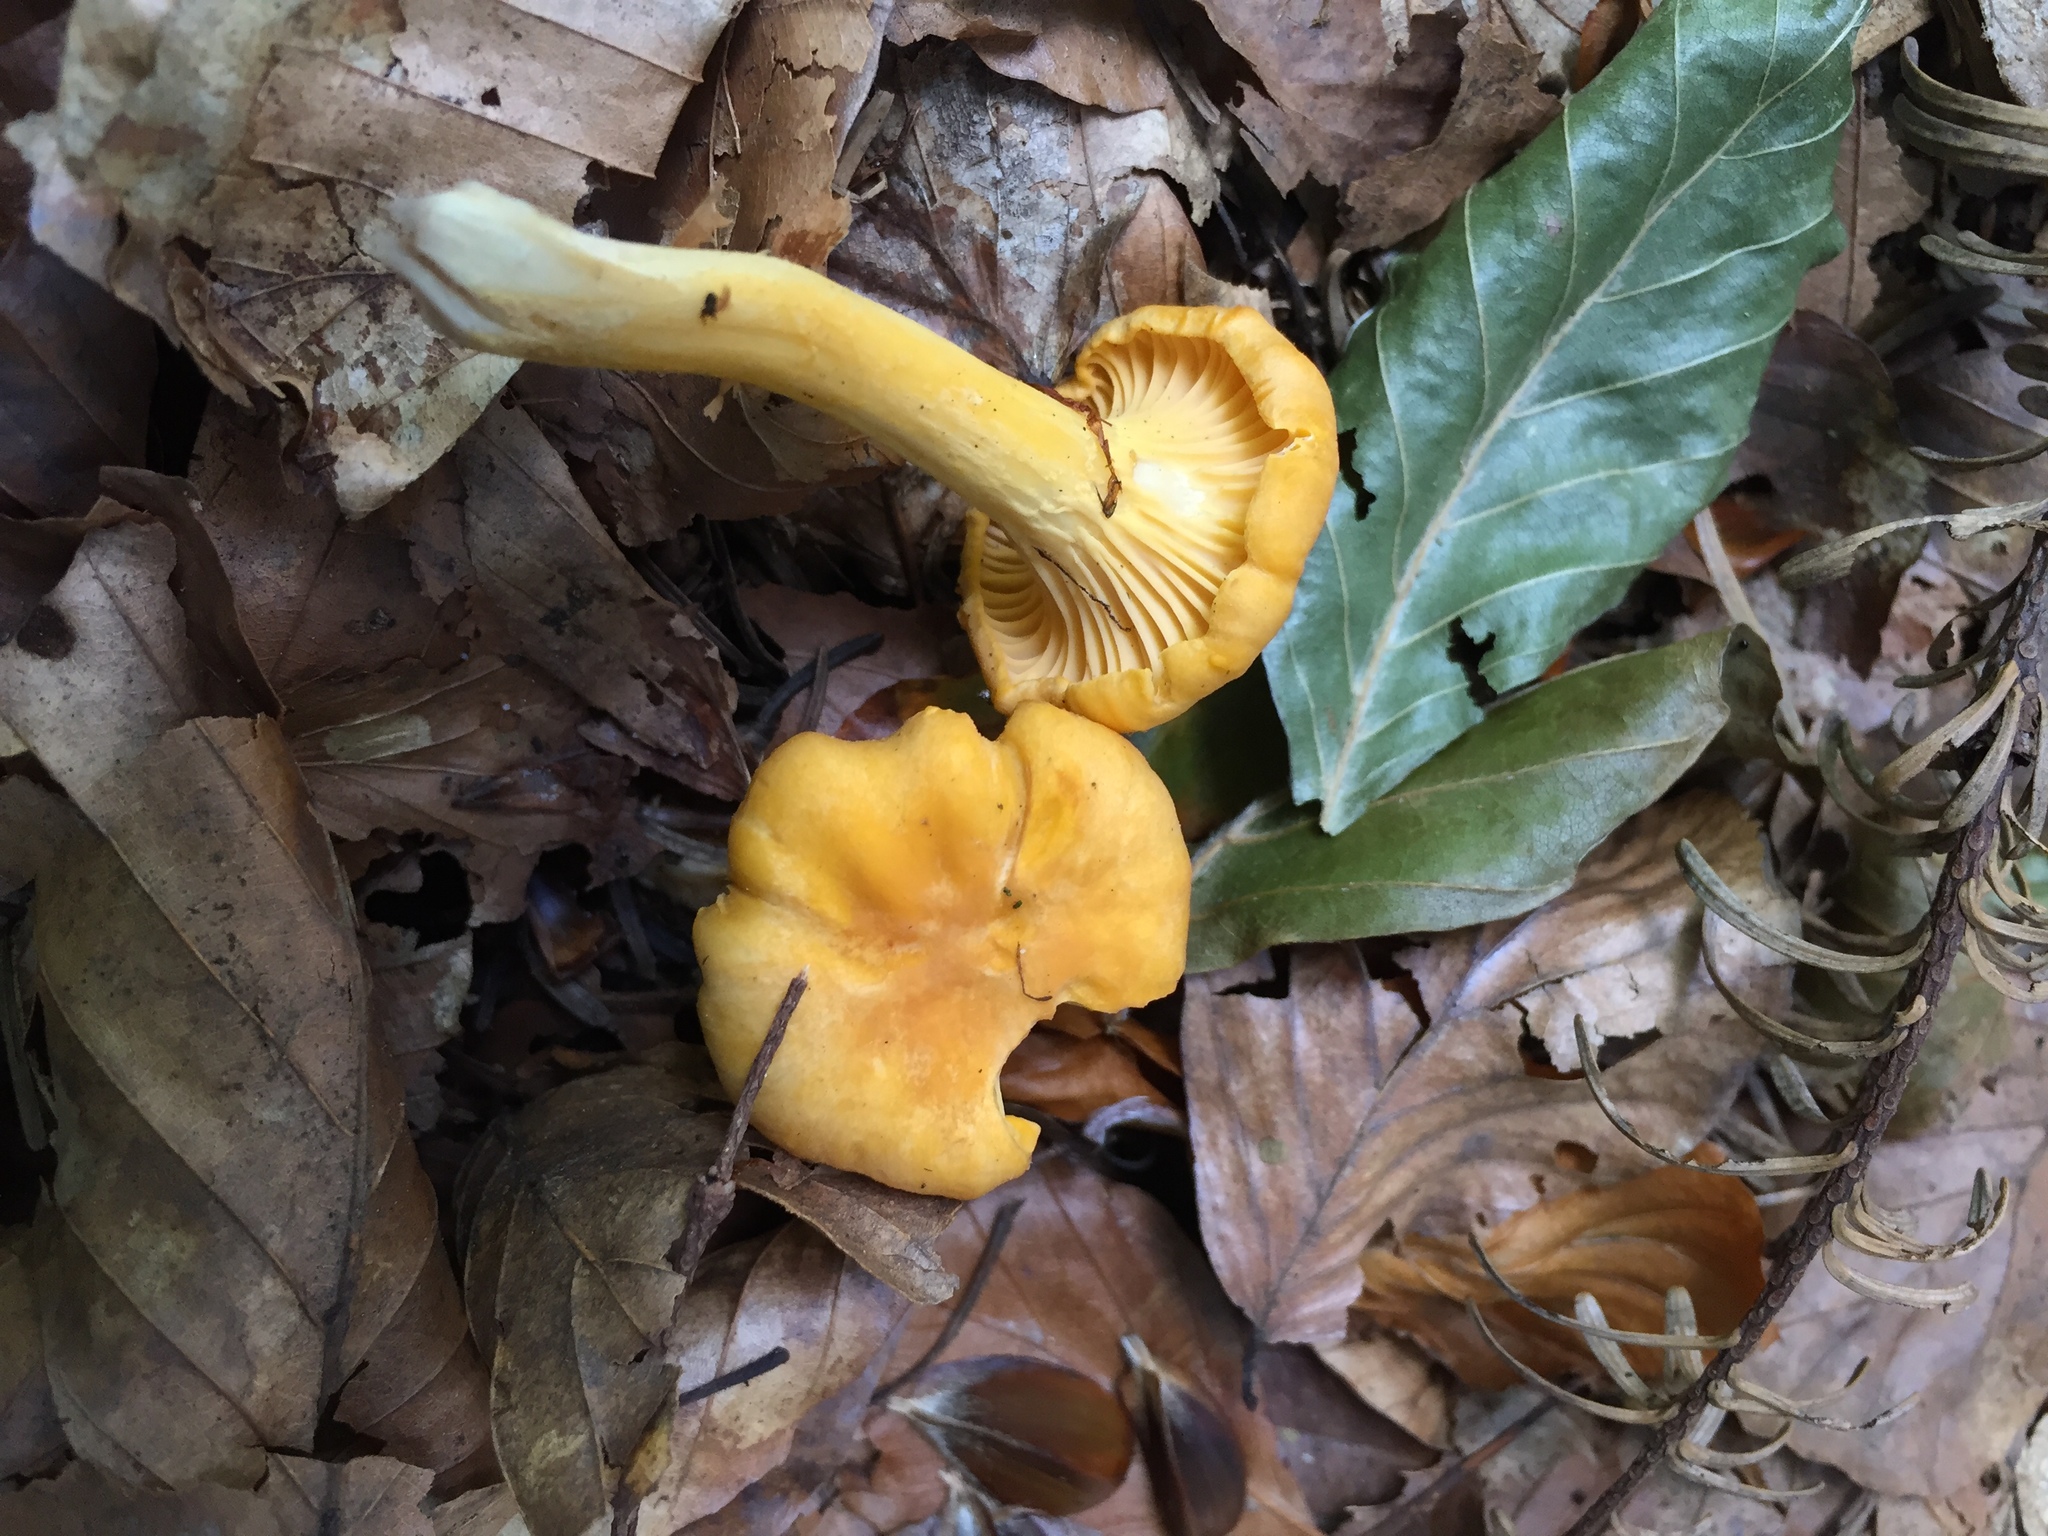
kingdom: Fungi
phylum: Basidiomycota
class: Agaricomycetes
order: Cantharellales
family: Hydnaceae
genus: Cantharellus
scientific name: Cantharellus cibarius
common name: Chanterelle
